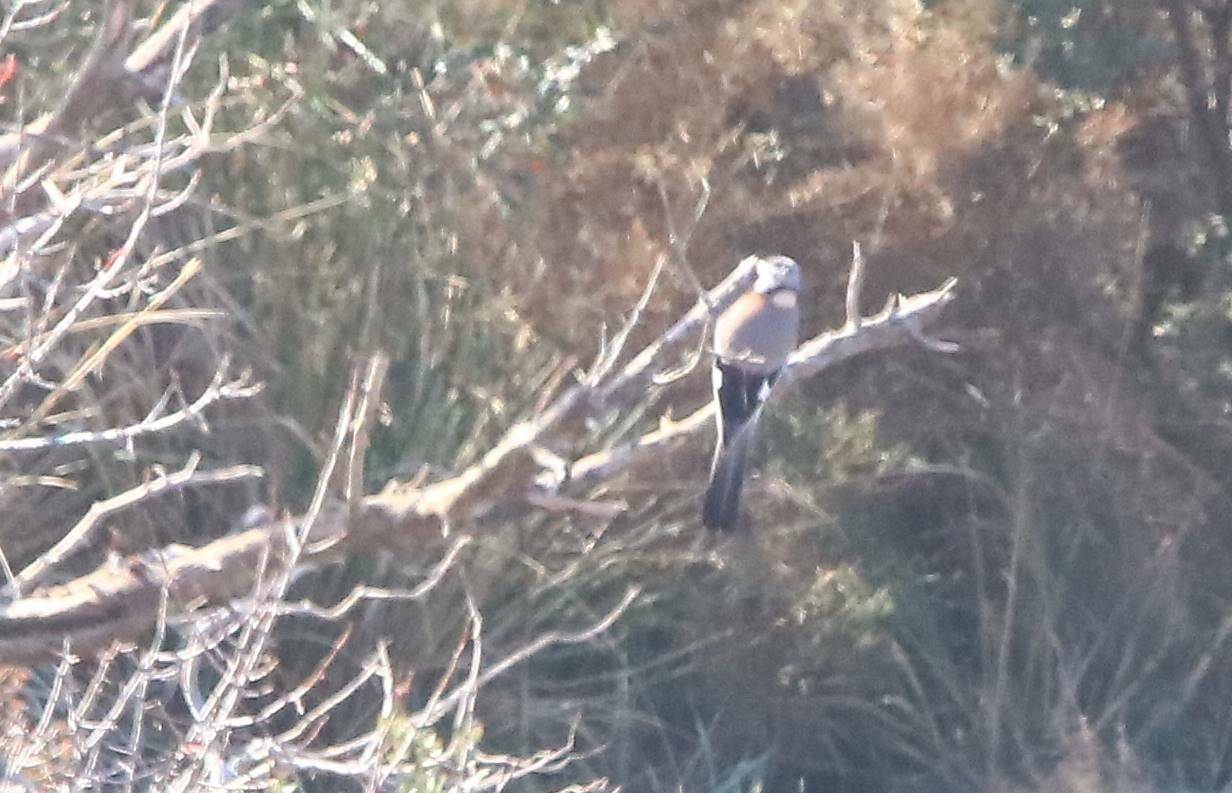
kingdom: Animalia
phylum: Chordata
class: Aves
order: Passeriformes
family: Corvidae
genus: Garrulus
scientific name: Garrulus glandarius
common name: Eurasian jay
